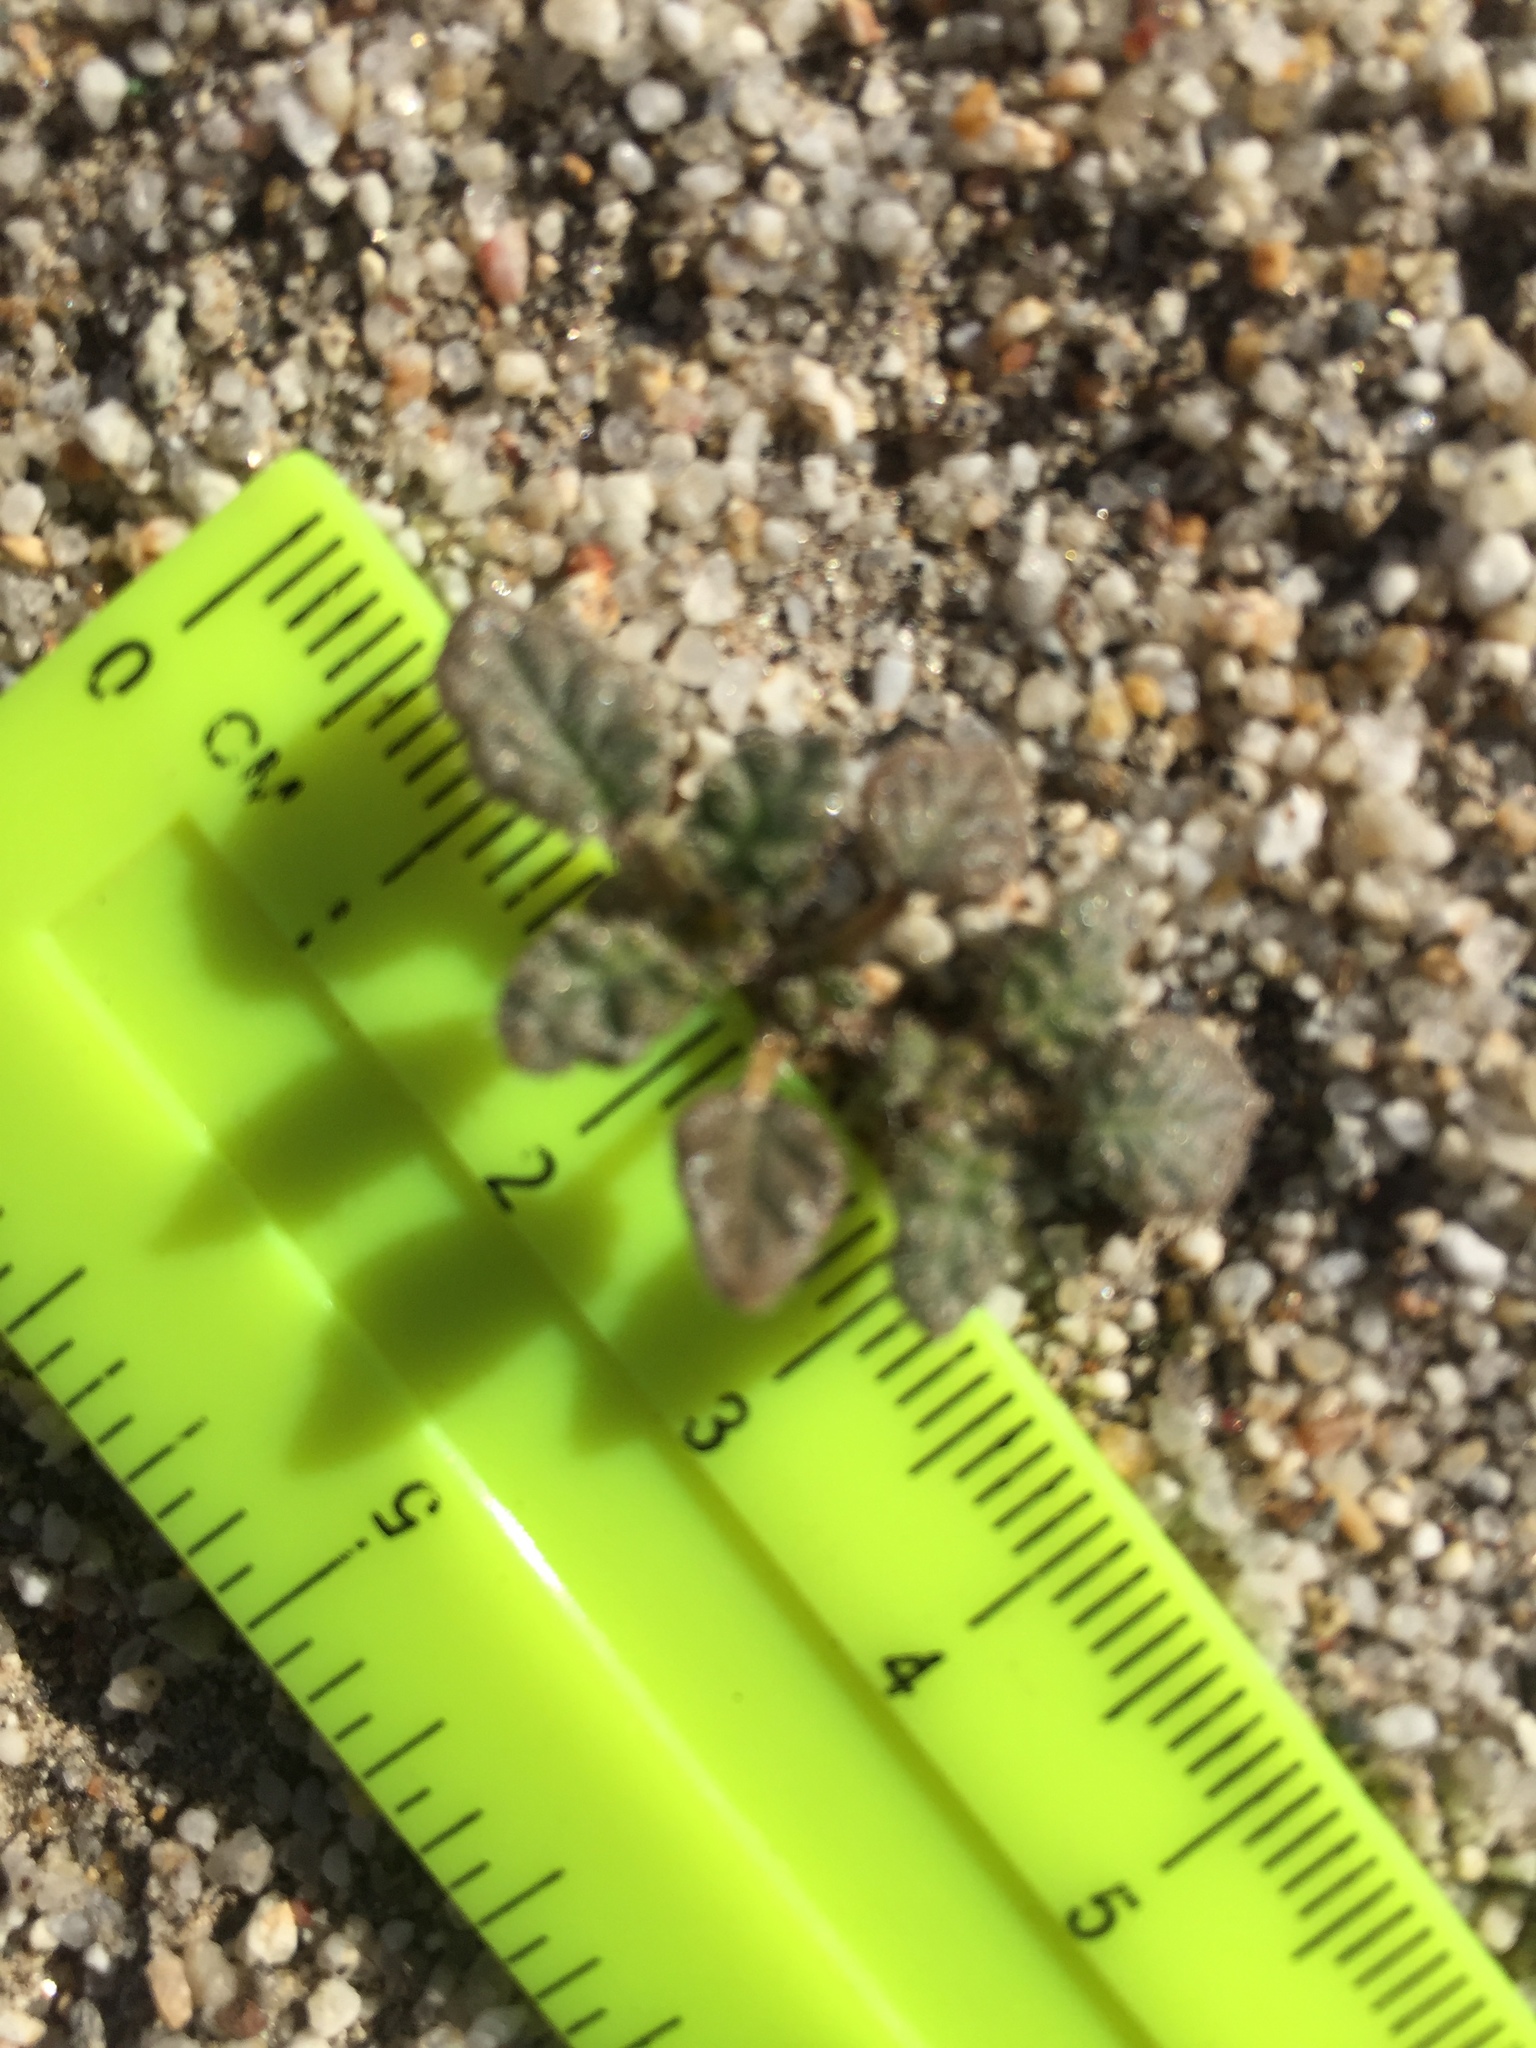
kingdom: Plantae
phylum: Tracheophyta
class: Magnoliopsida
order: Boraginales
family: Ehretiaceae
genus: Tiquilia
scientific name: Tiquilia palmeri
